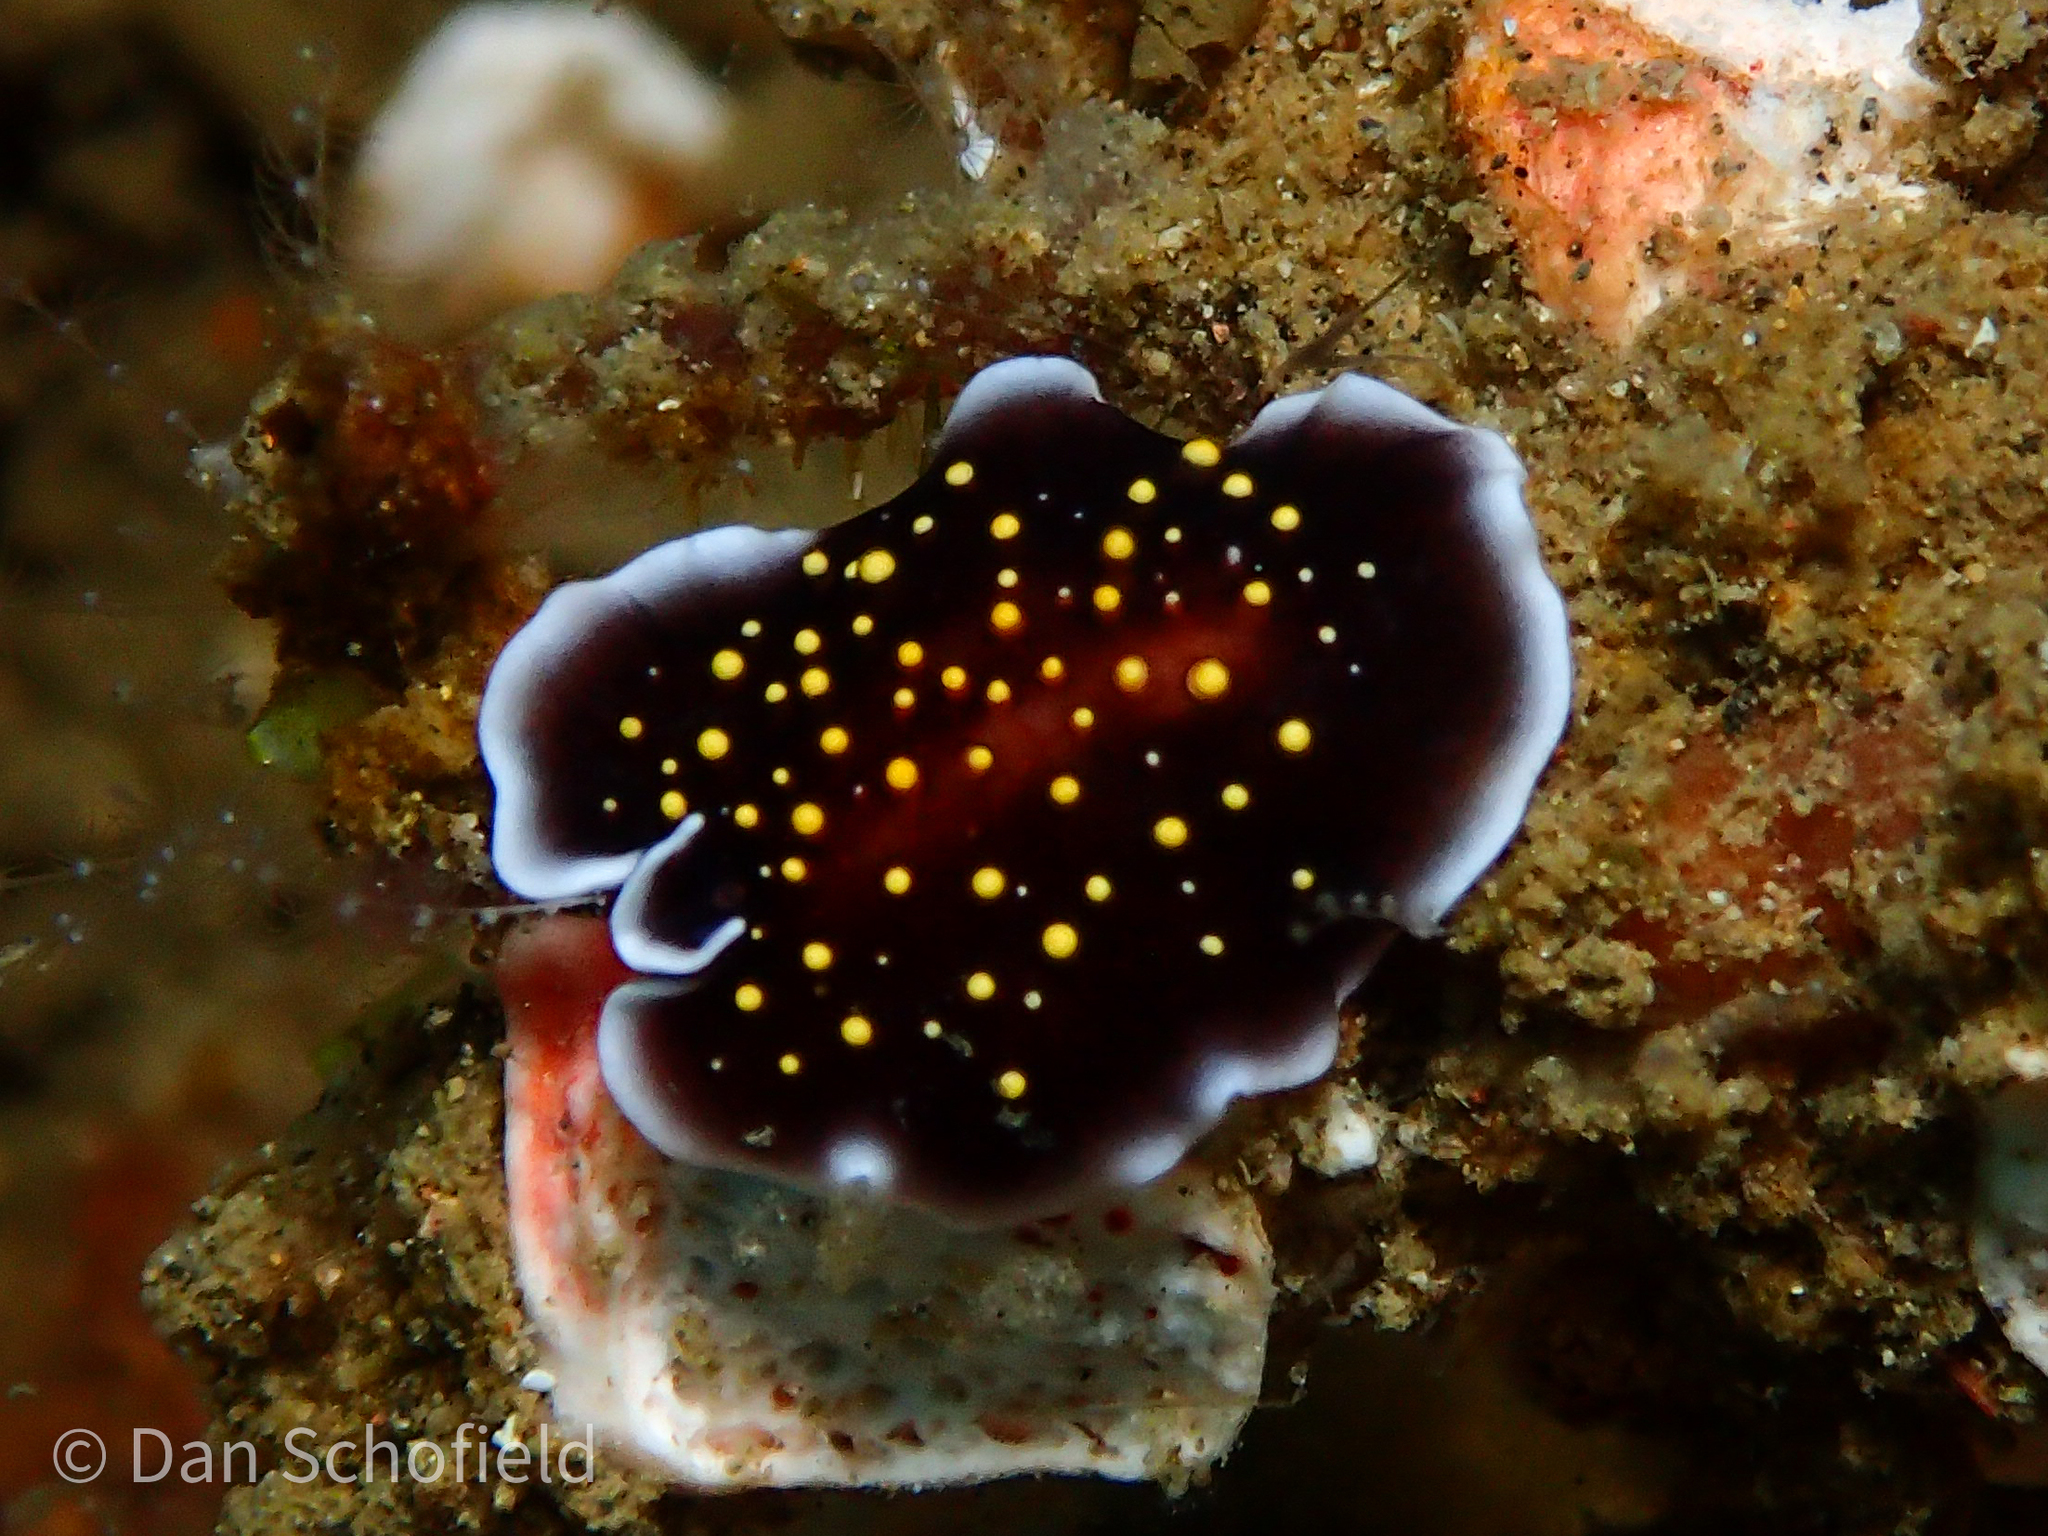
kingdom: Animalia
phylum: Platyhelminthes
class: Turbellaria
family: Pseudocerotidae
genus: Thysanozoon
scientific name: Thysanozoon nigropapillosum
